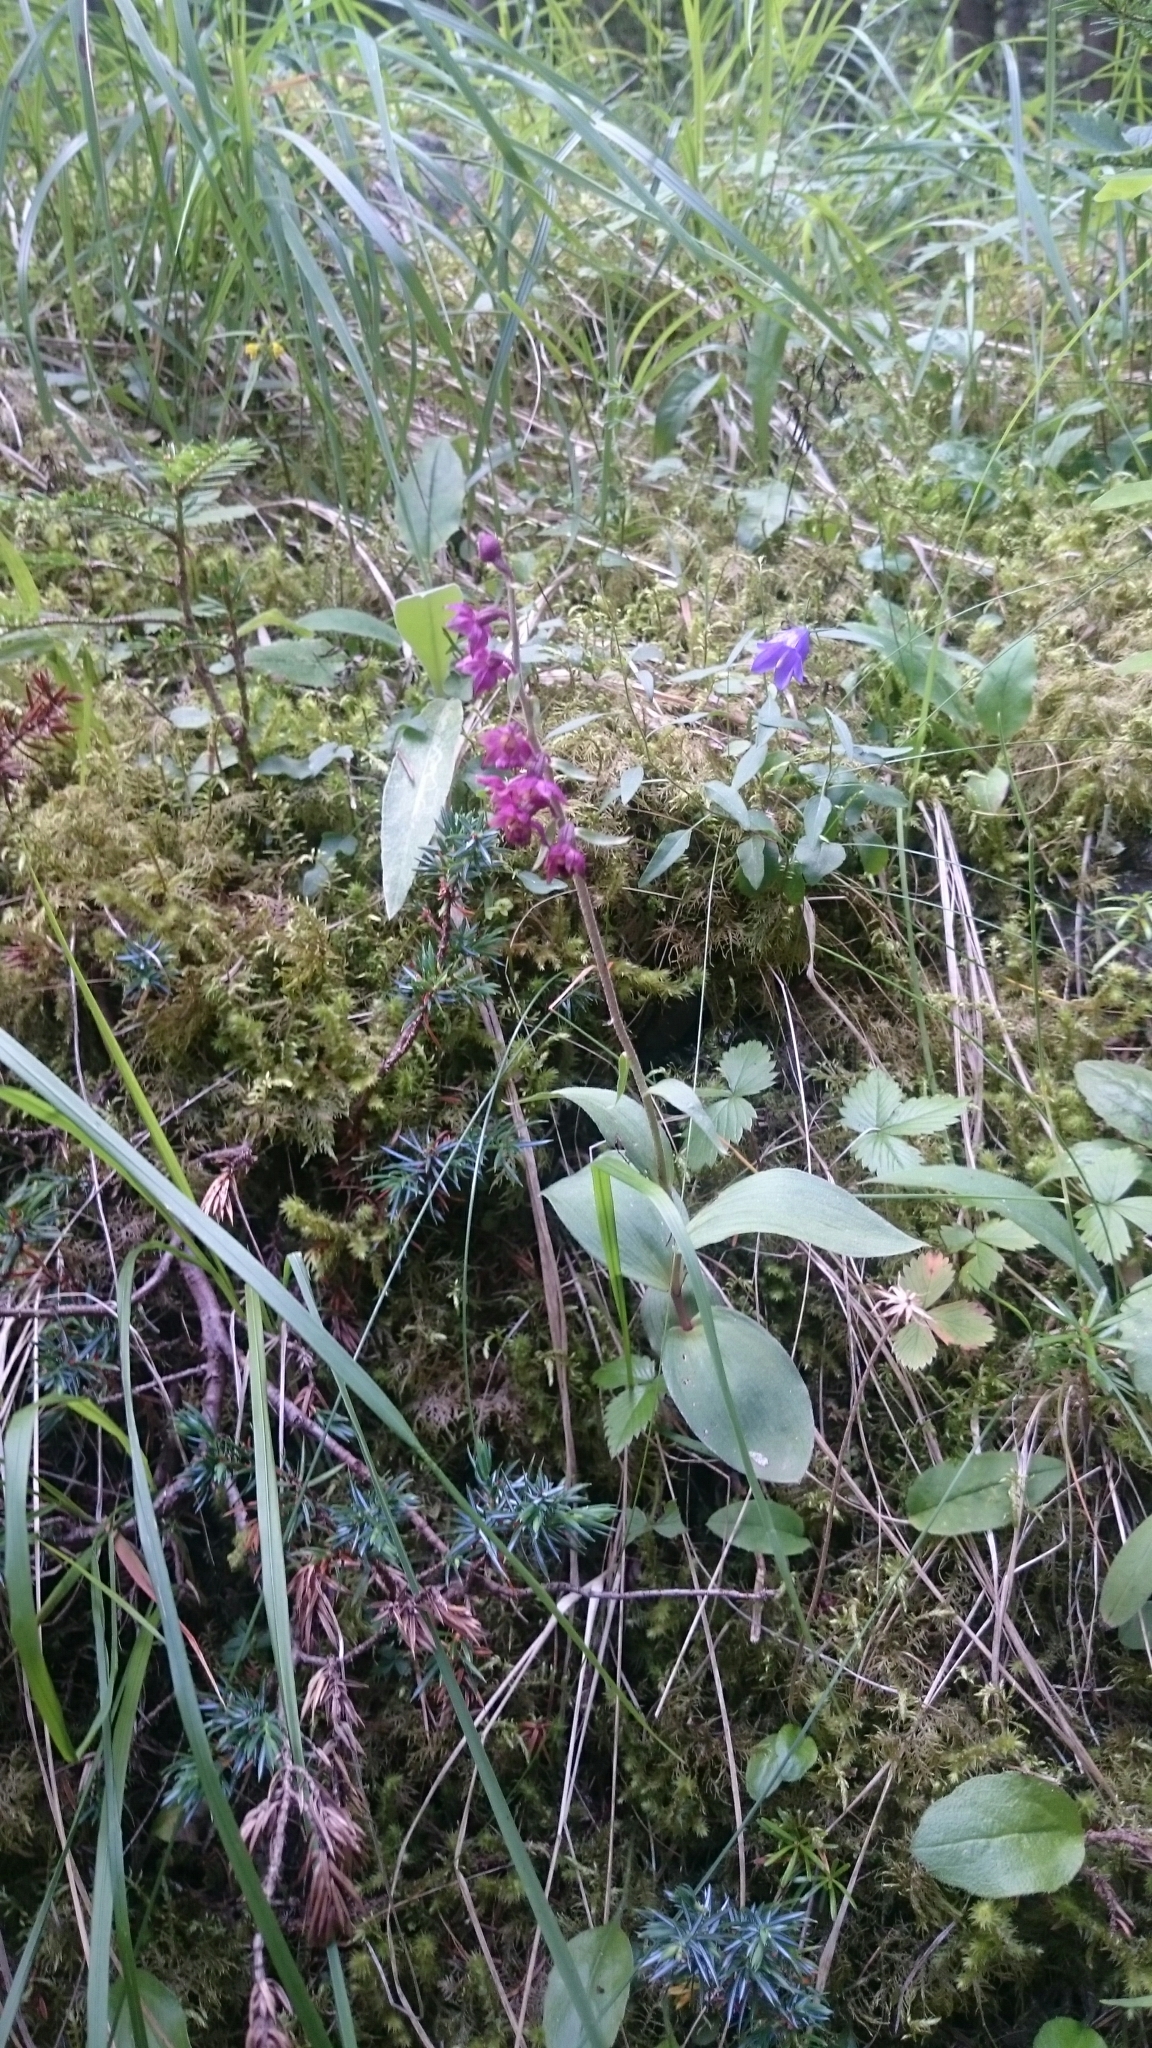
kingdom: Plantae
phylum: Tracheophyta
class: Liliopsida
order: Asparagales
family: Orchidaceae
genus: Epipactis
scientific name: Epipactis atrorubens
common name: Dark-red helleborine
